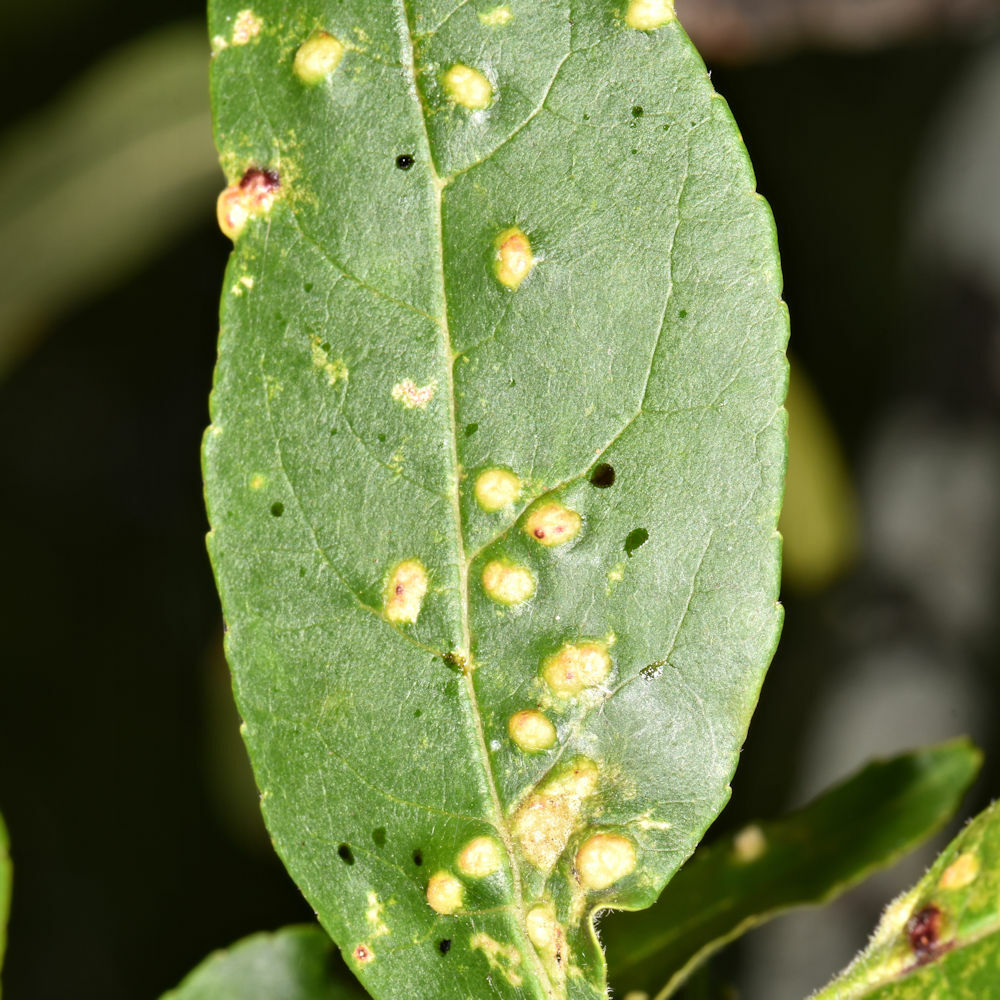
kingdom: Animalia
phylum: Arthropoda
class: Arachnida
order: Trombidiformes
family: Eriophyidae
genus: Aceria
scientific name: Aceria fraxinicola
